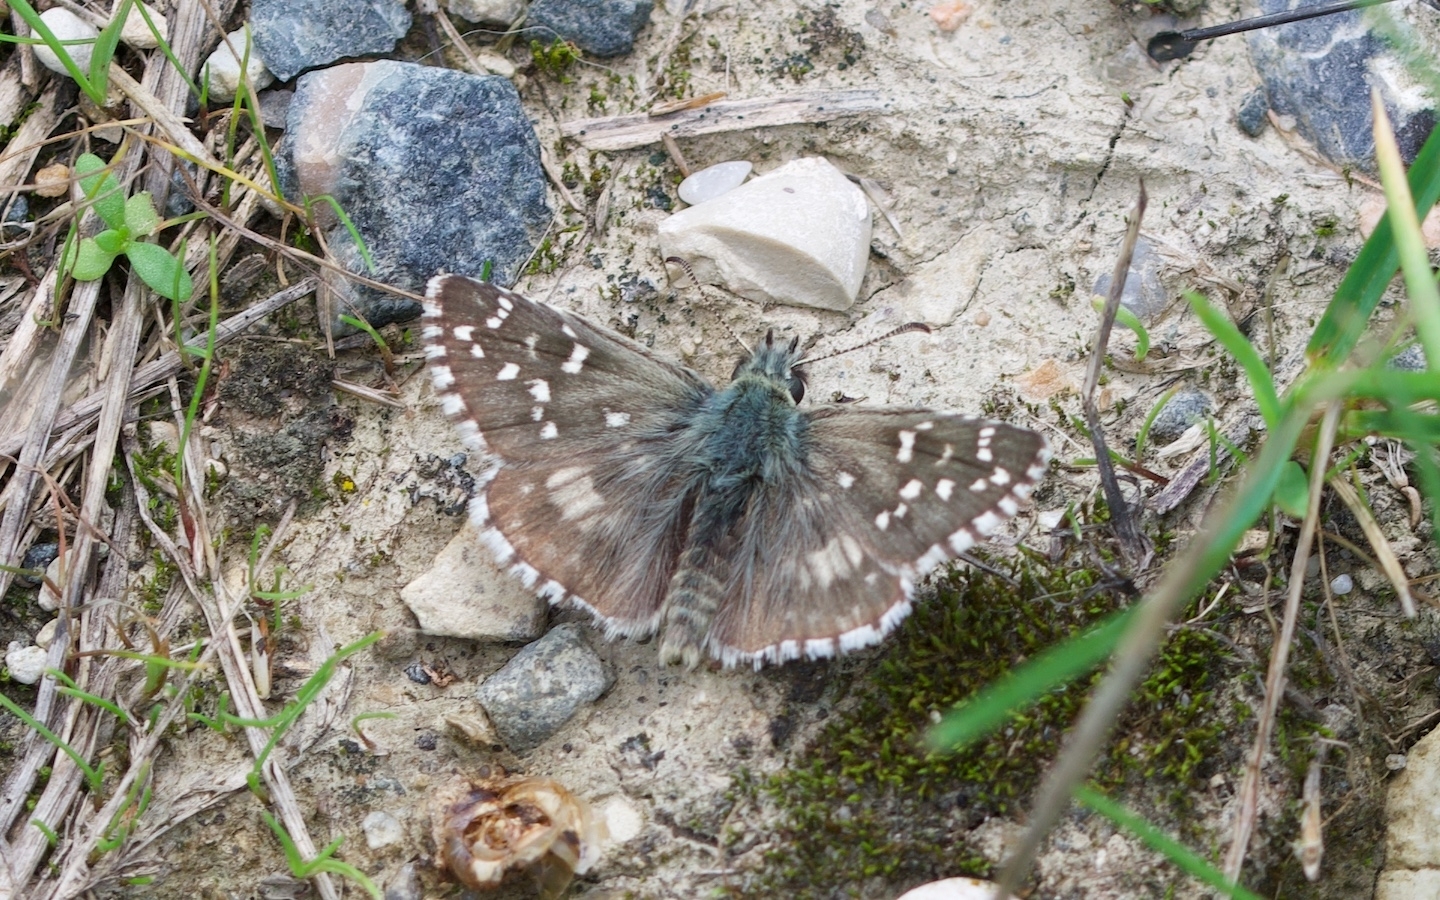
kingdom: Animalia
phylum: Arthropoda
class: Insecta
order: Lepidoptera
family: Hesperiidae
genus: Pyrgus
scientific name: Pyrgus armoricanus
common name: Oberthür's grizzled skipper
